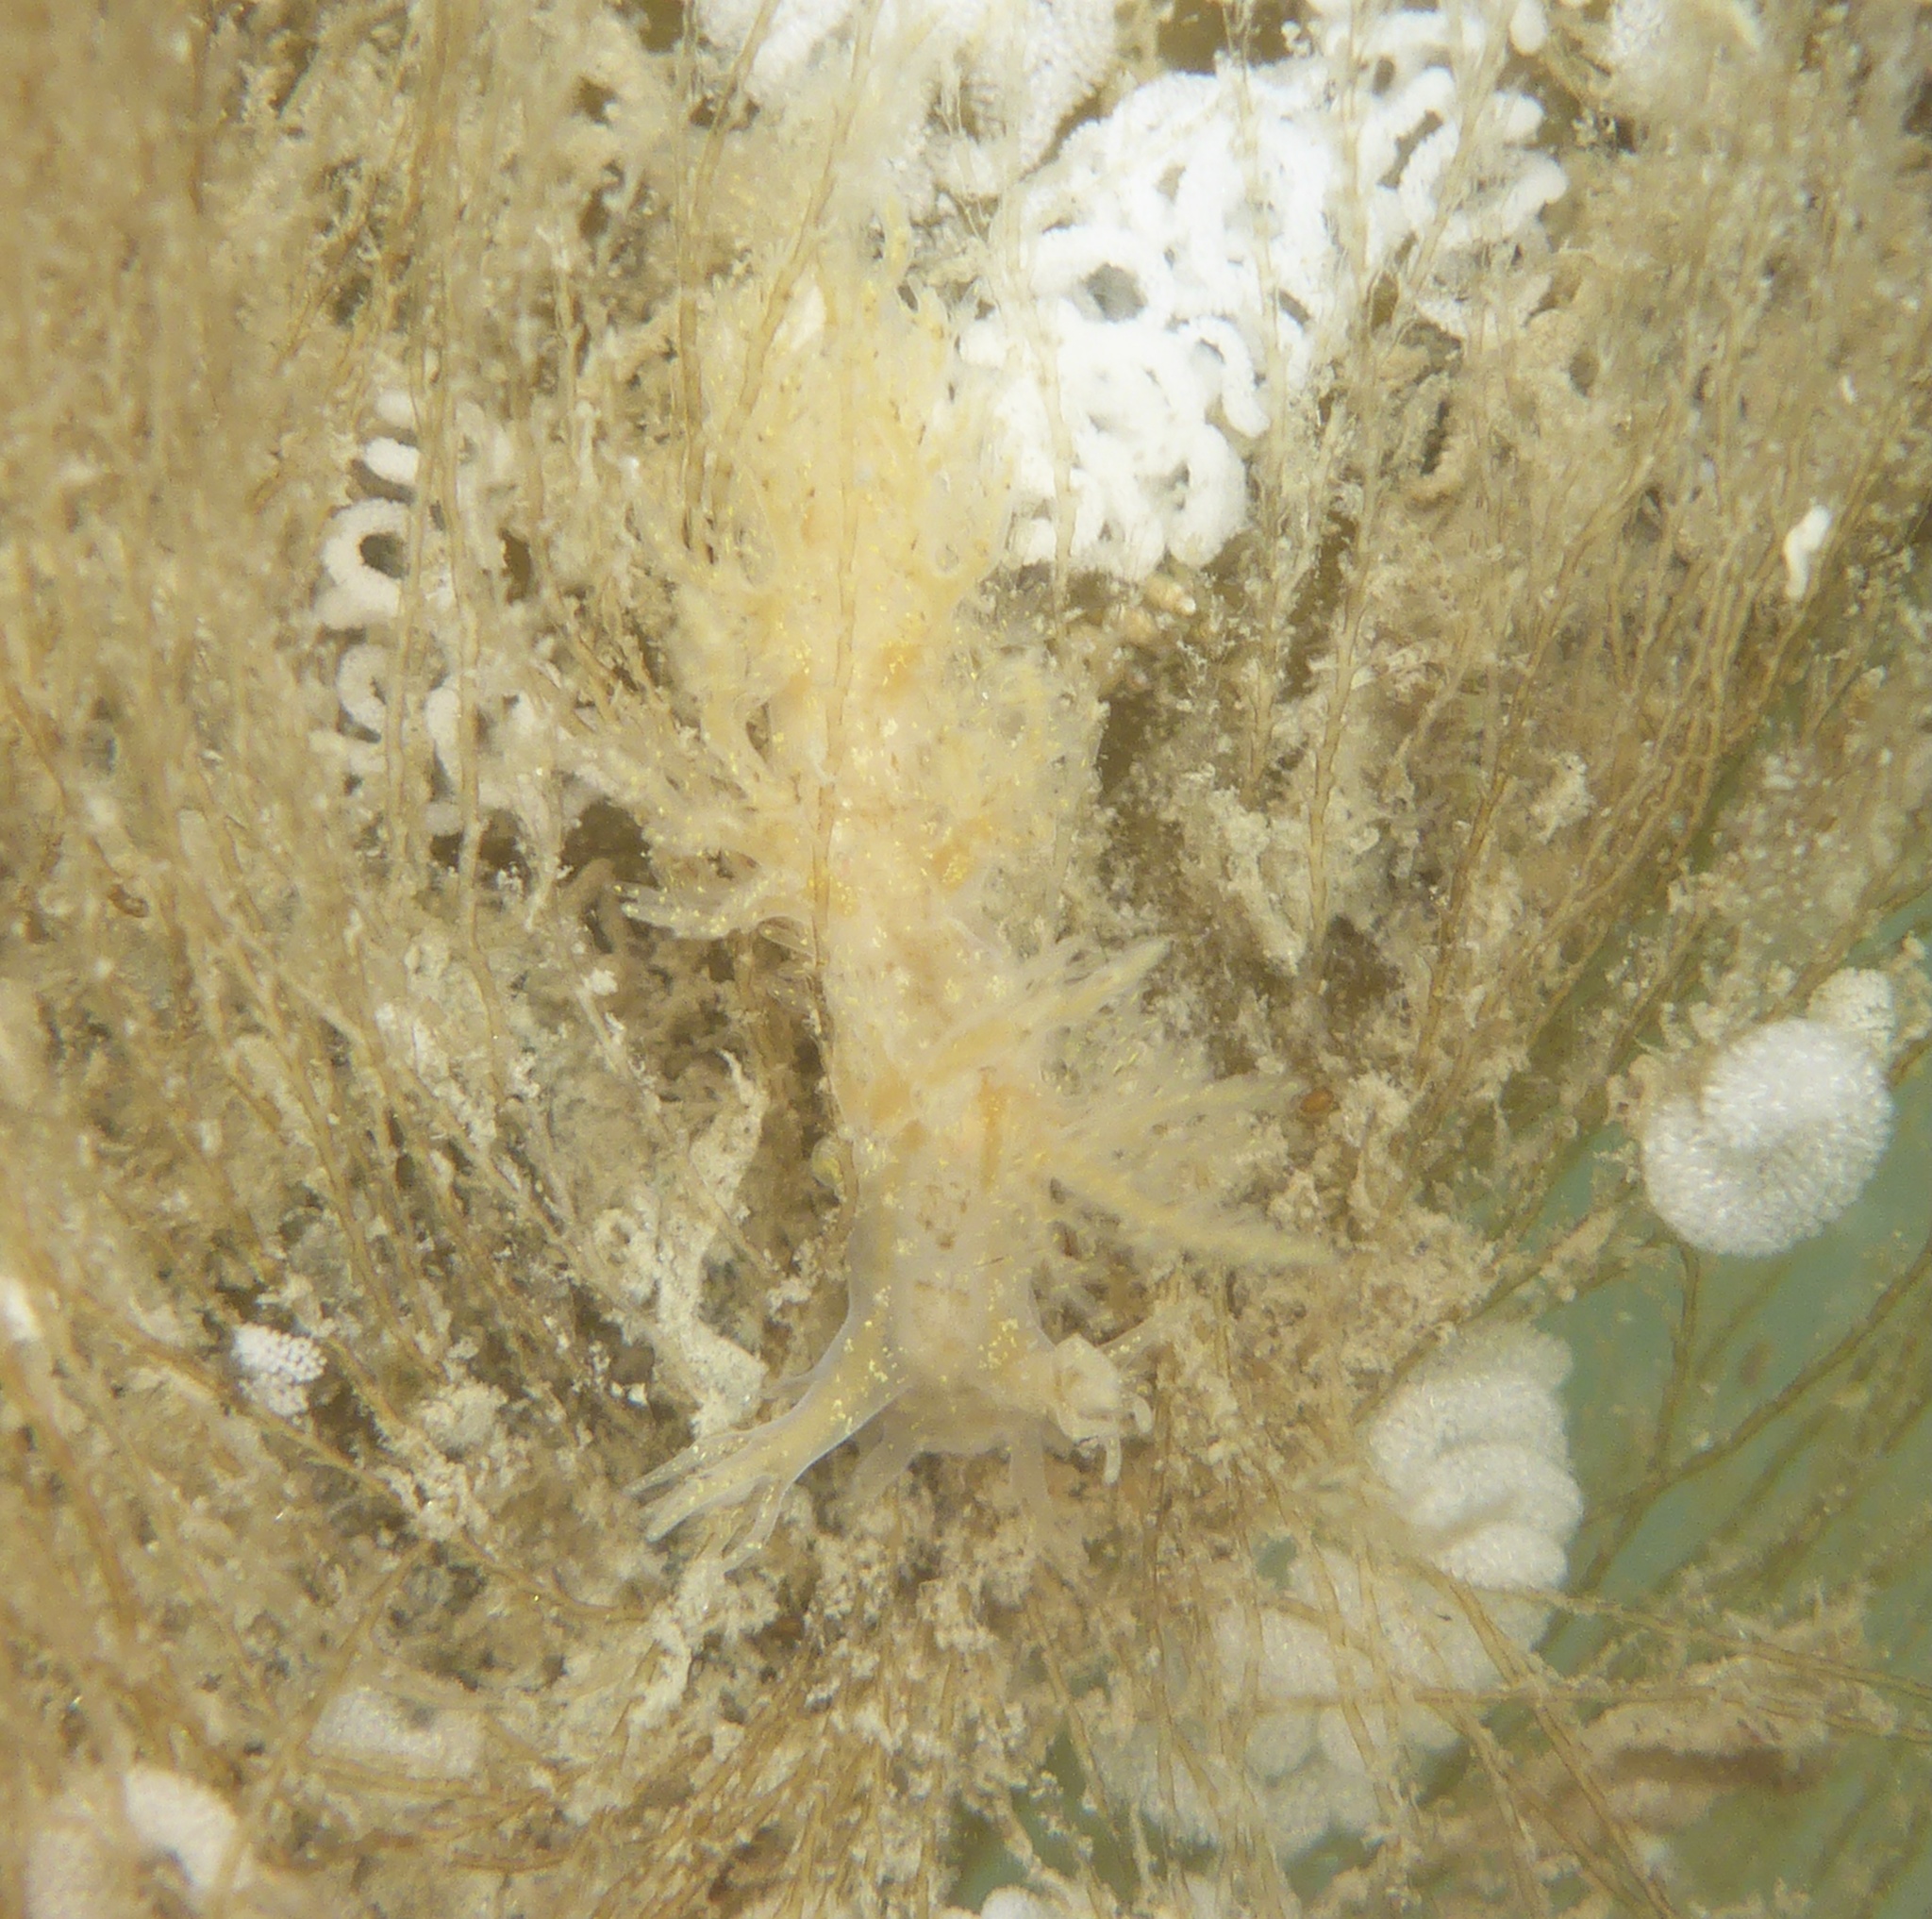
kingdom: Animalia
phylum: Mollusca
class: Gastropoda
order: Nudibranchia
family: Dendronotidae
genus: Dendronotus
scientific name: Dendronotus venustus
